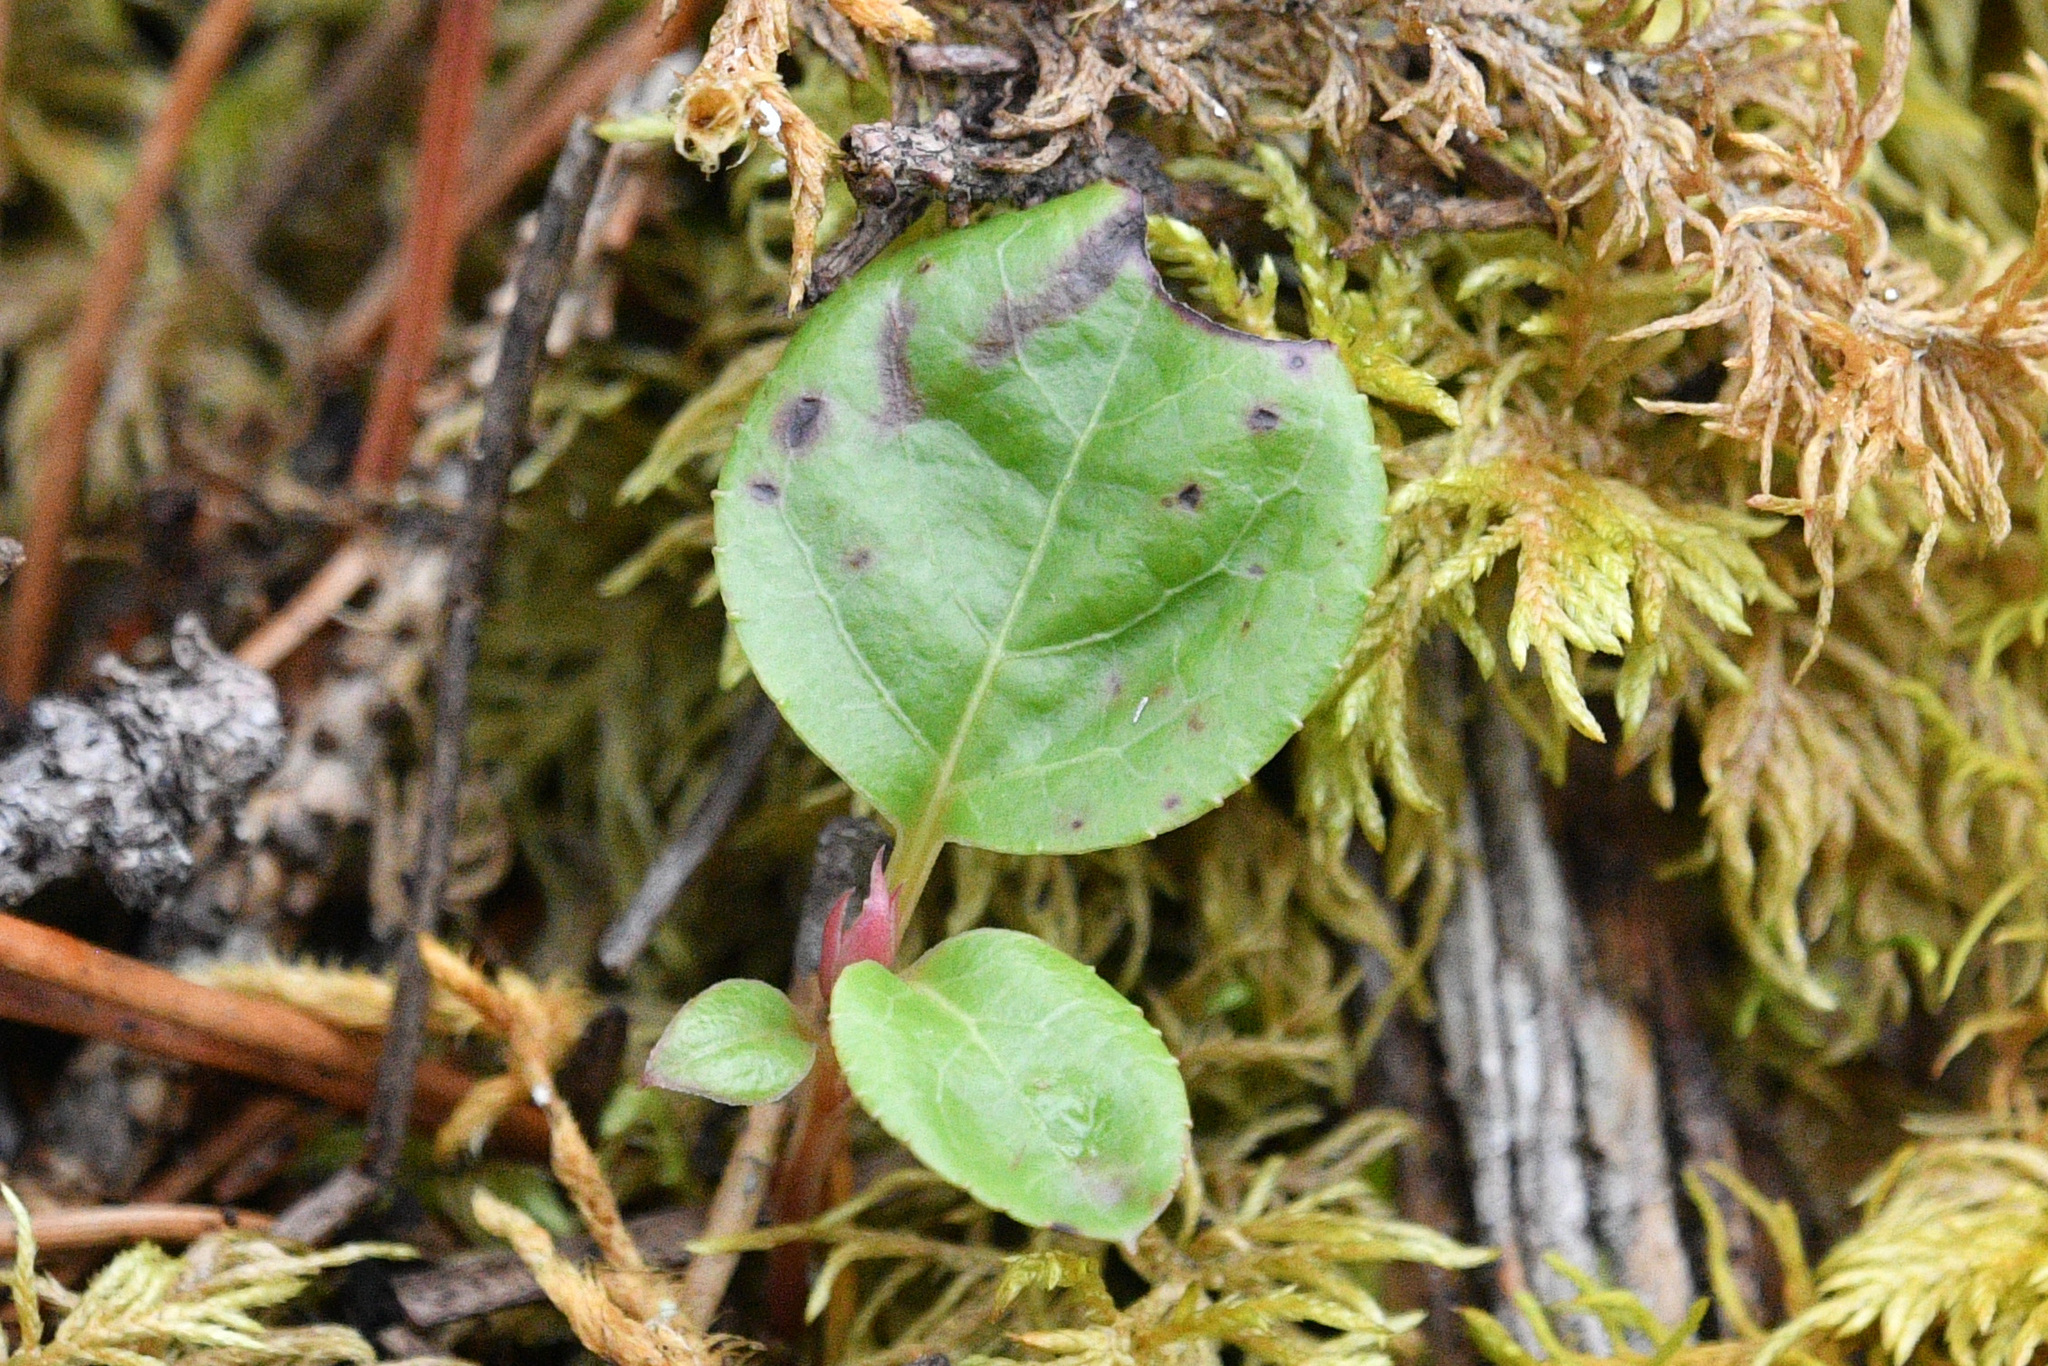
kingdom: Plantae
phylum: Tracheophyta
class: Magnoliopsida
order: Ericales
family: Ericaceae
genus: Orthilia
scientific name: Orthilia secunda
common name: One-sided orthilia
